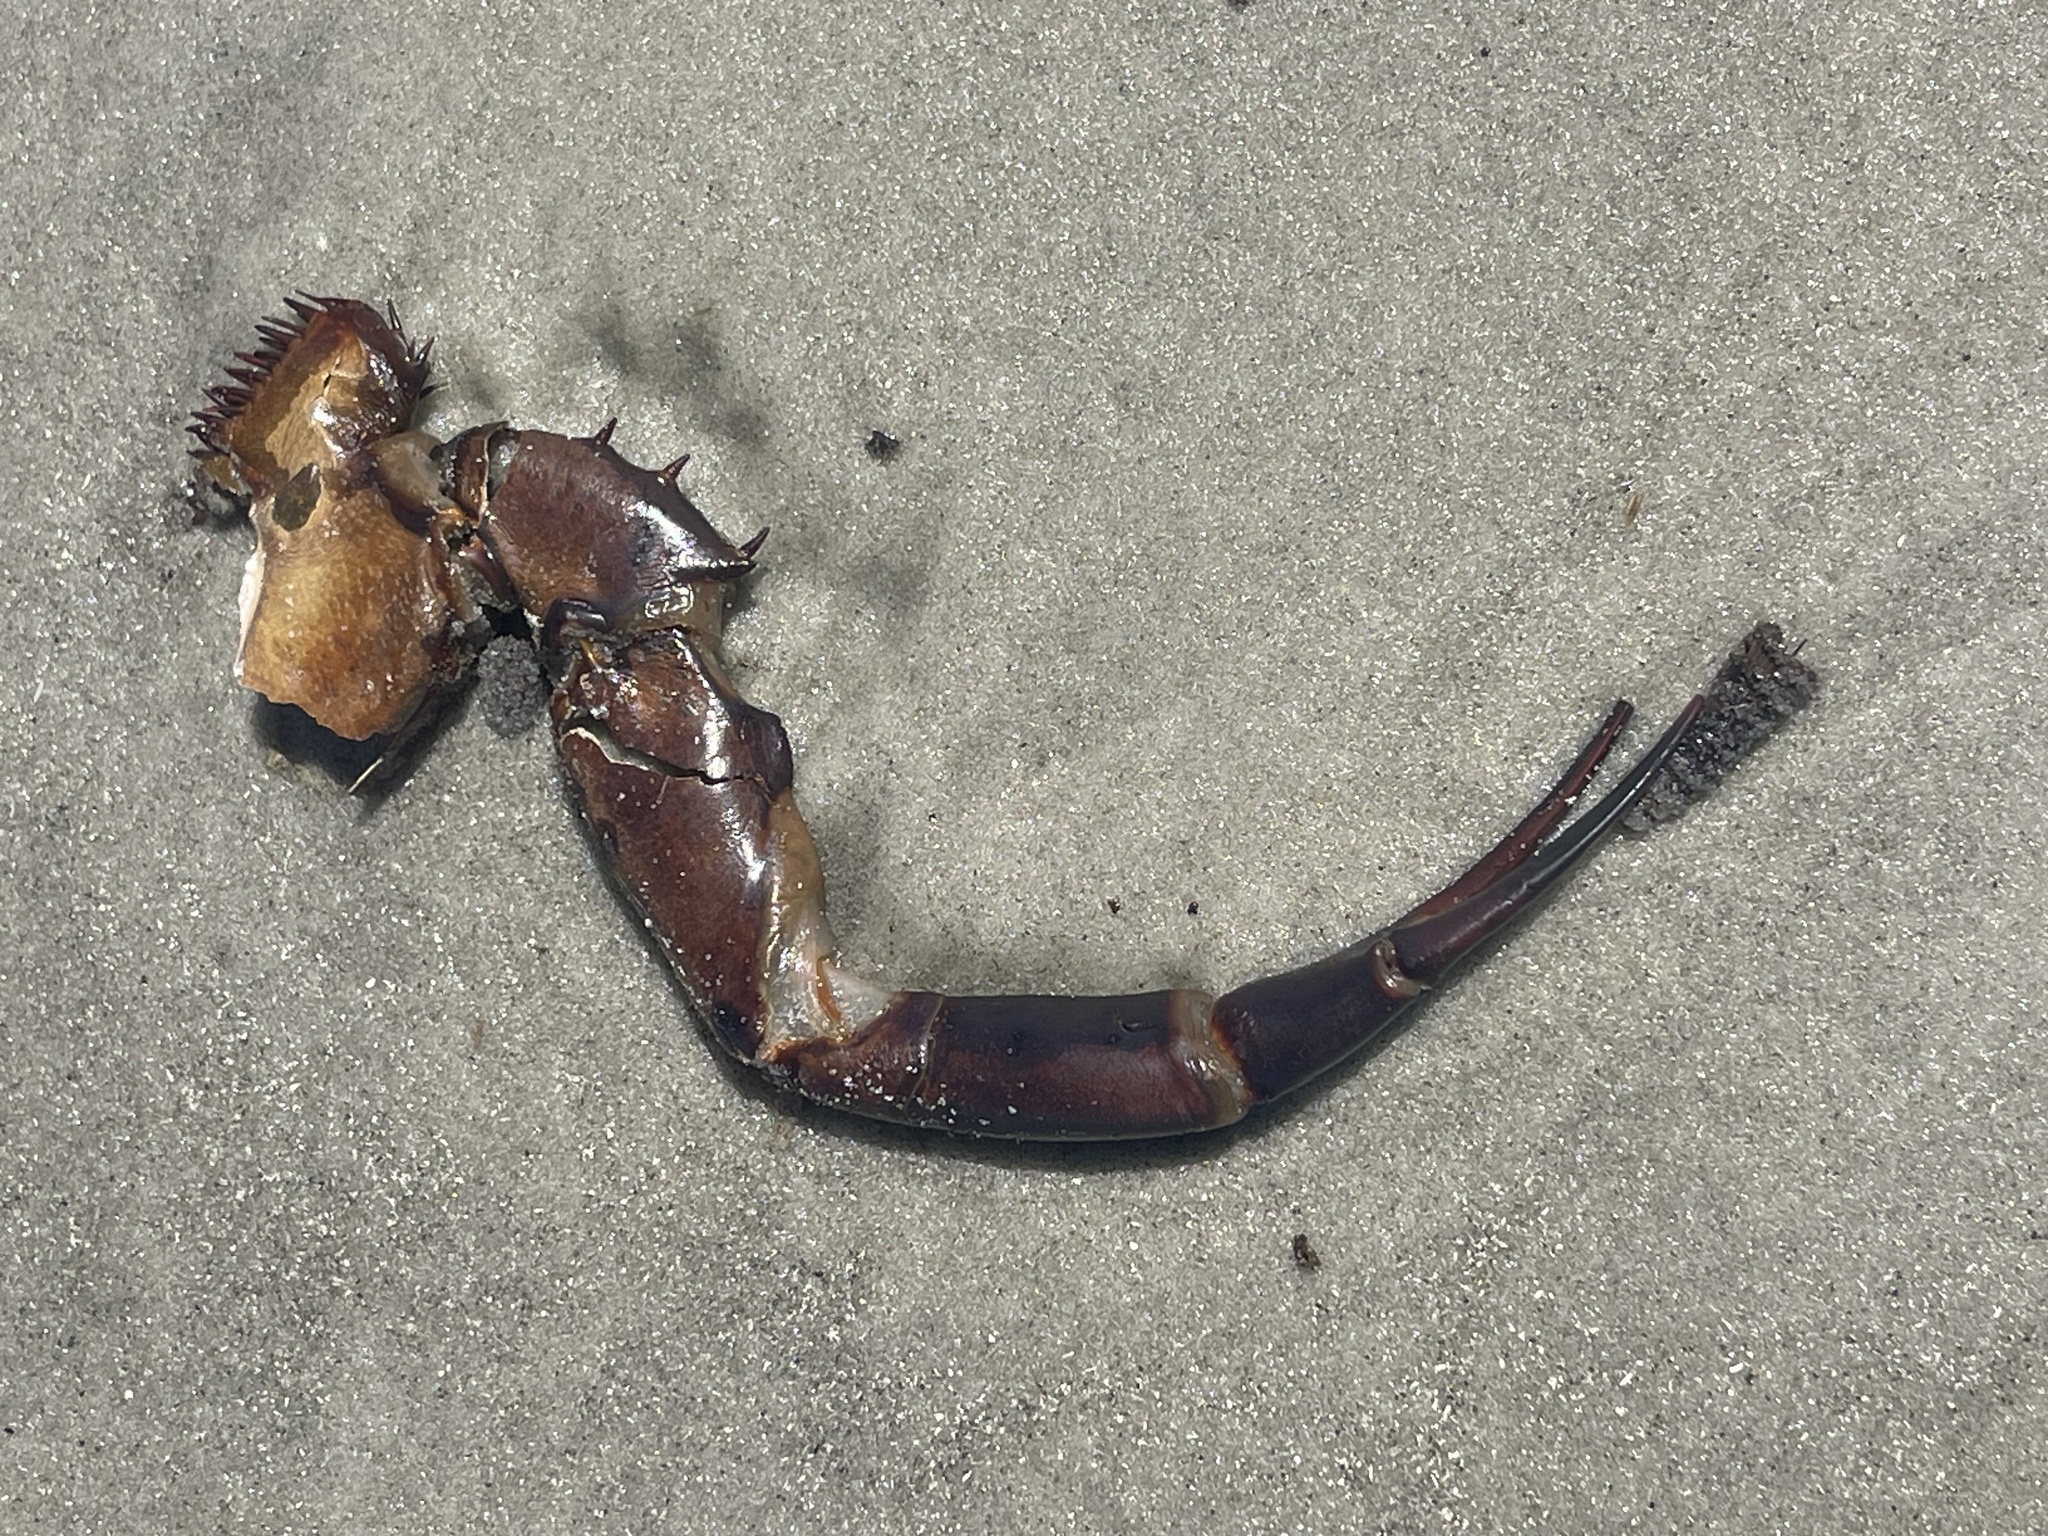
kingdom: Animalia
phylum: Arthropoda
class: Merostomata
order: Xiphosurida
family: Limulidae
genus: Limulus
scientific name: Limulus polyphemus
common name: Horseshoe crab
